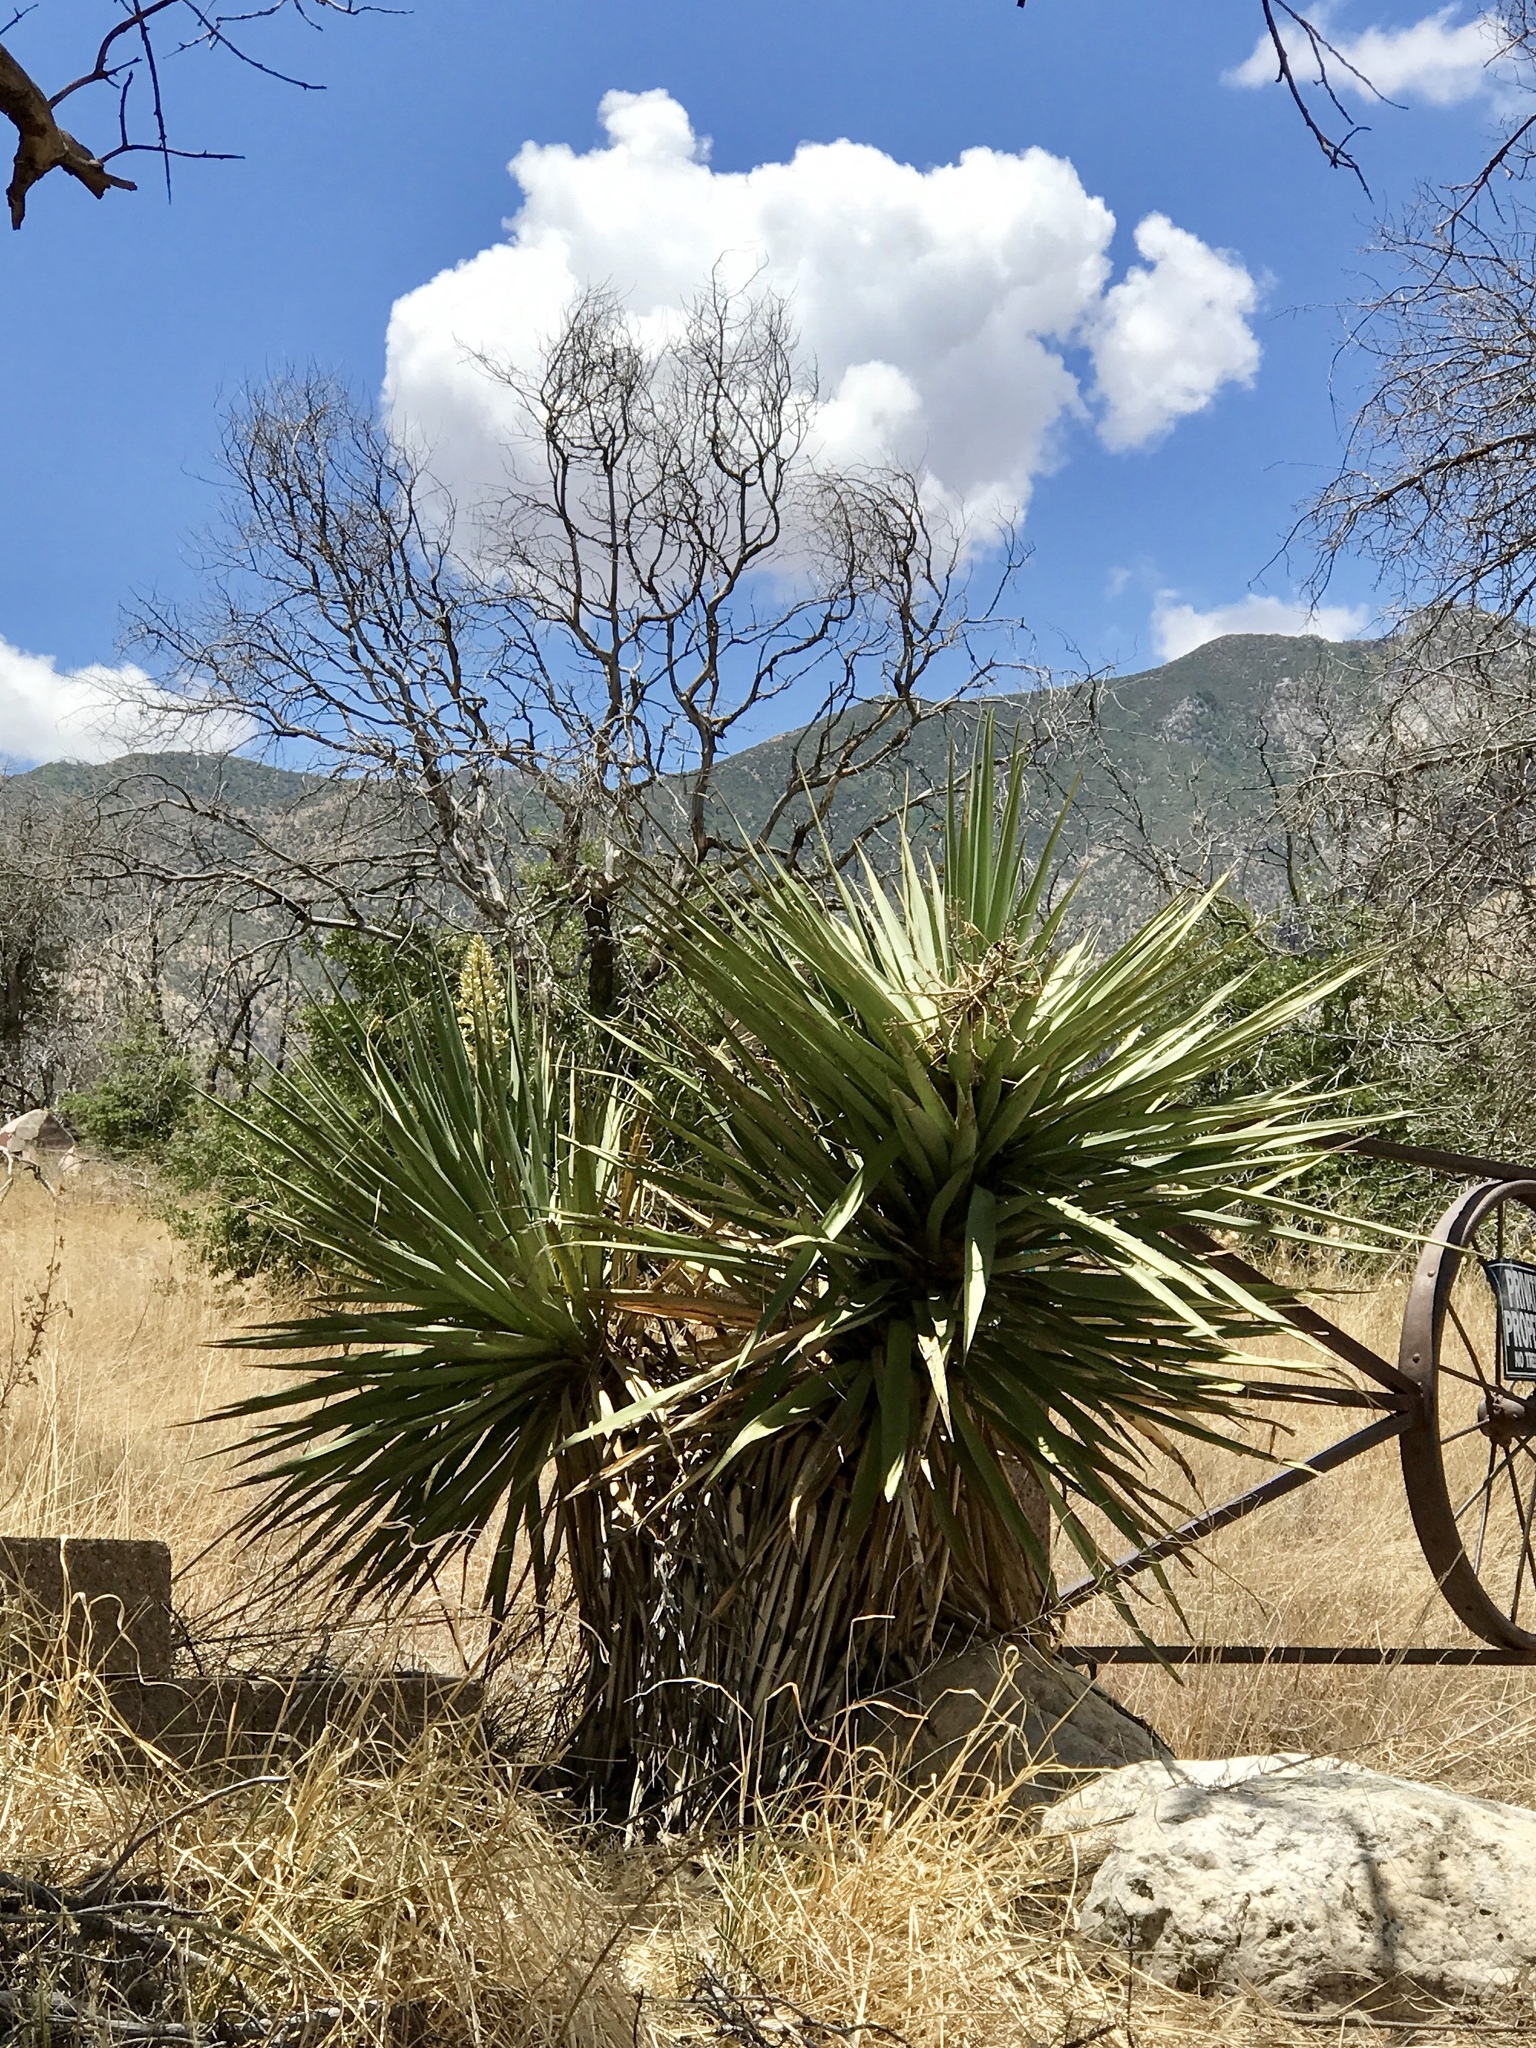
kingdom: Plantae
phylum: Tracheophyta
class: Liliopsida
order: Asparagales
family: Asparagaceae
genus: Yucca
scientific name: Yucca madrensis
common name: Hoary yucca
